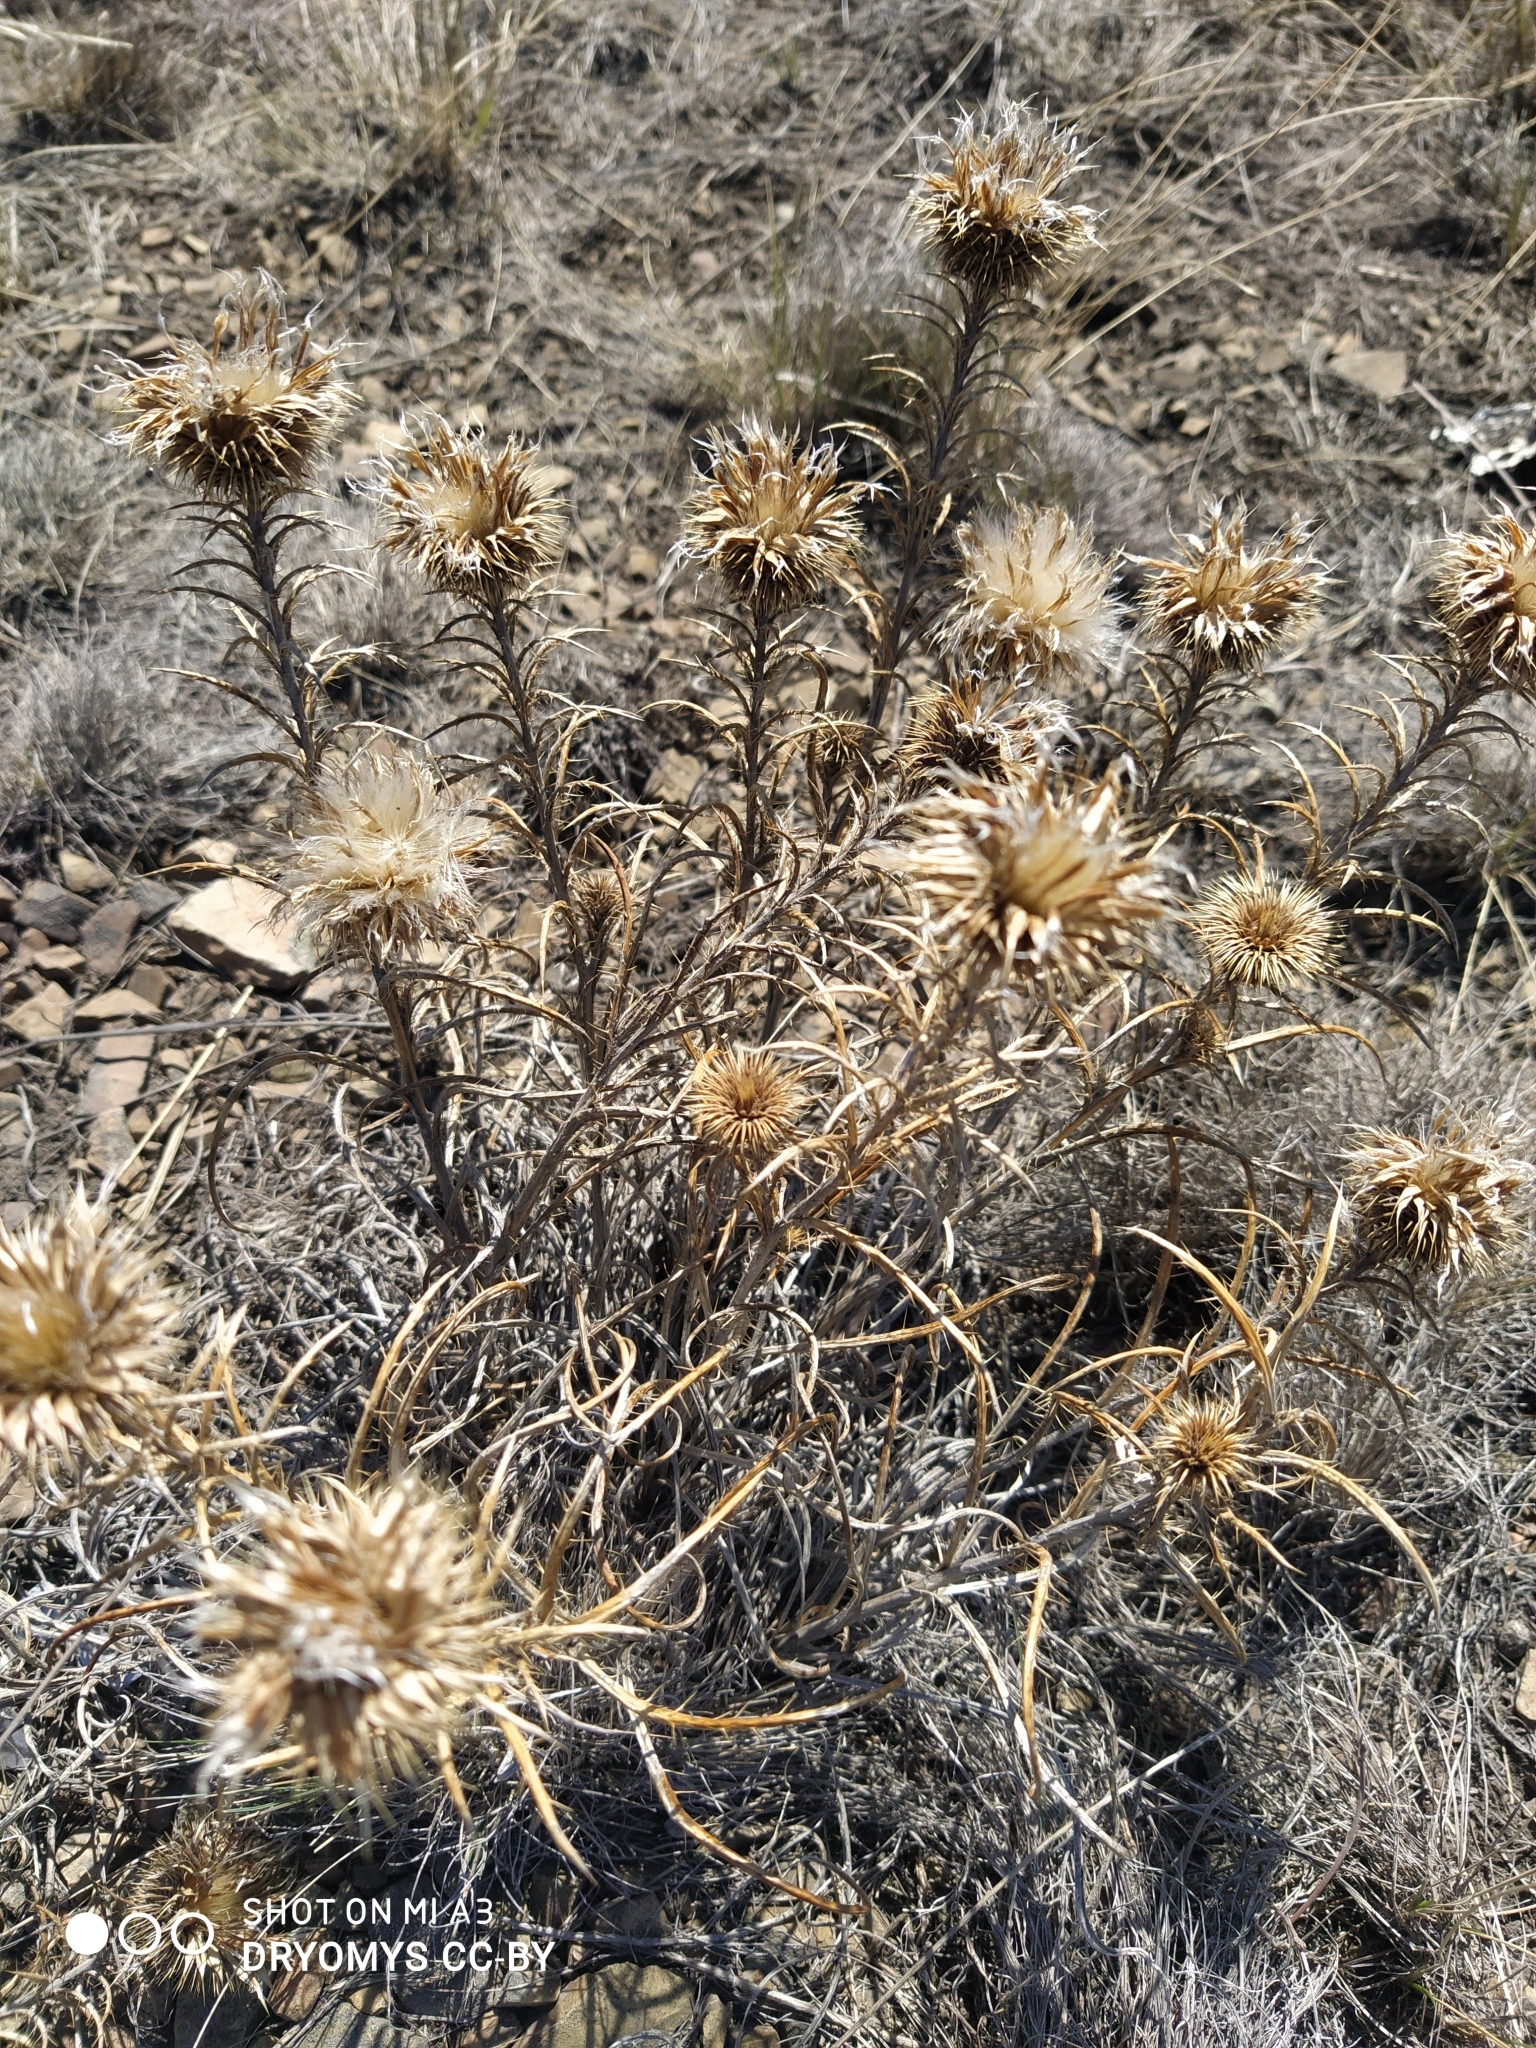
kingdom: Plantae
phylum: Tracheophyta
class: Magnoliopsida
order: Asterales
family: Asteraceae
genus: Ancathia
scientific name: Ancathia igniaria
